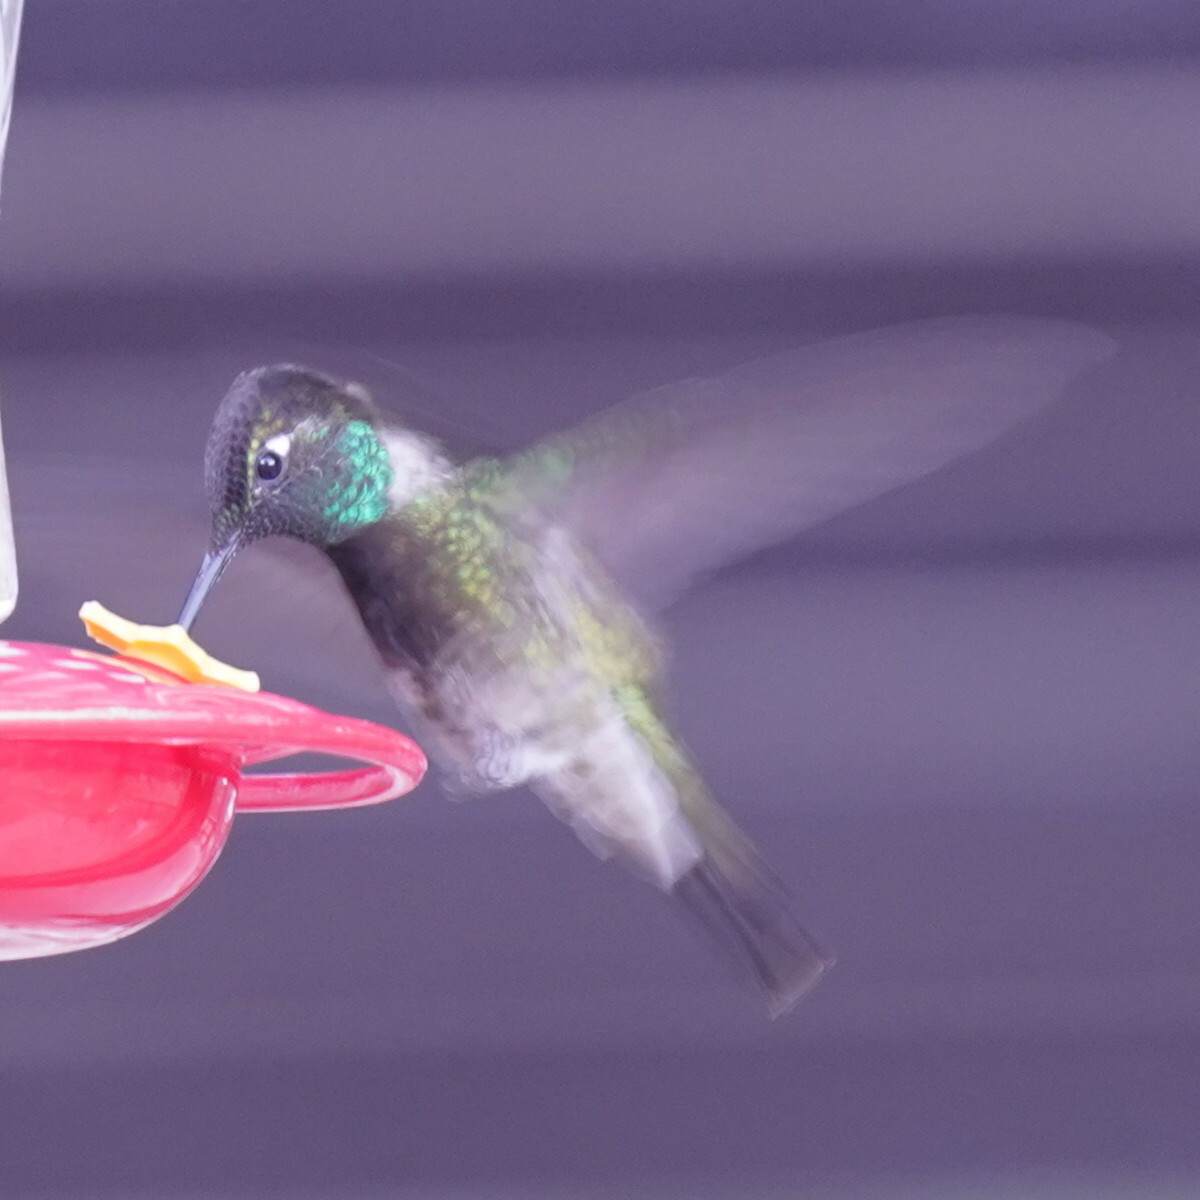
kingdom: Animalia
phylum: Chordata
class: Aves
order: Apodiformes
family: Trochilidae
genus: Eugenes
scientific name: Eugenes fulgens
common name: Magnificent hummingbird
